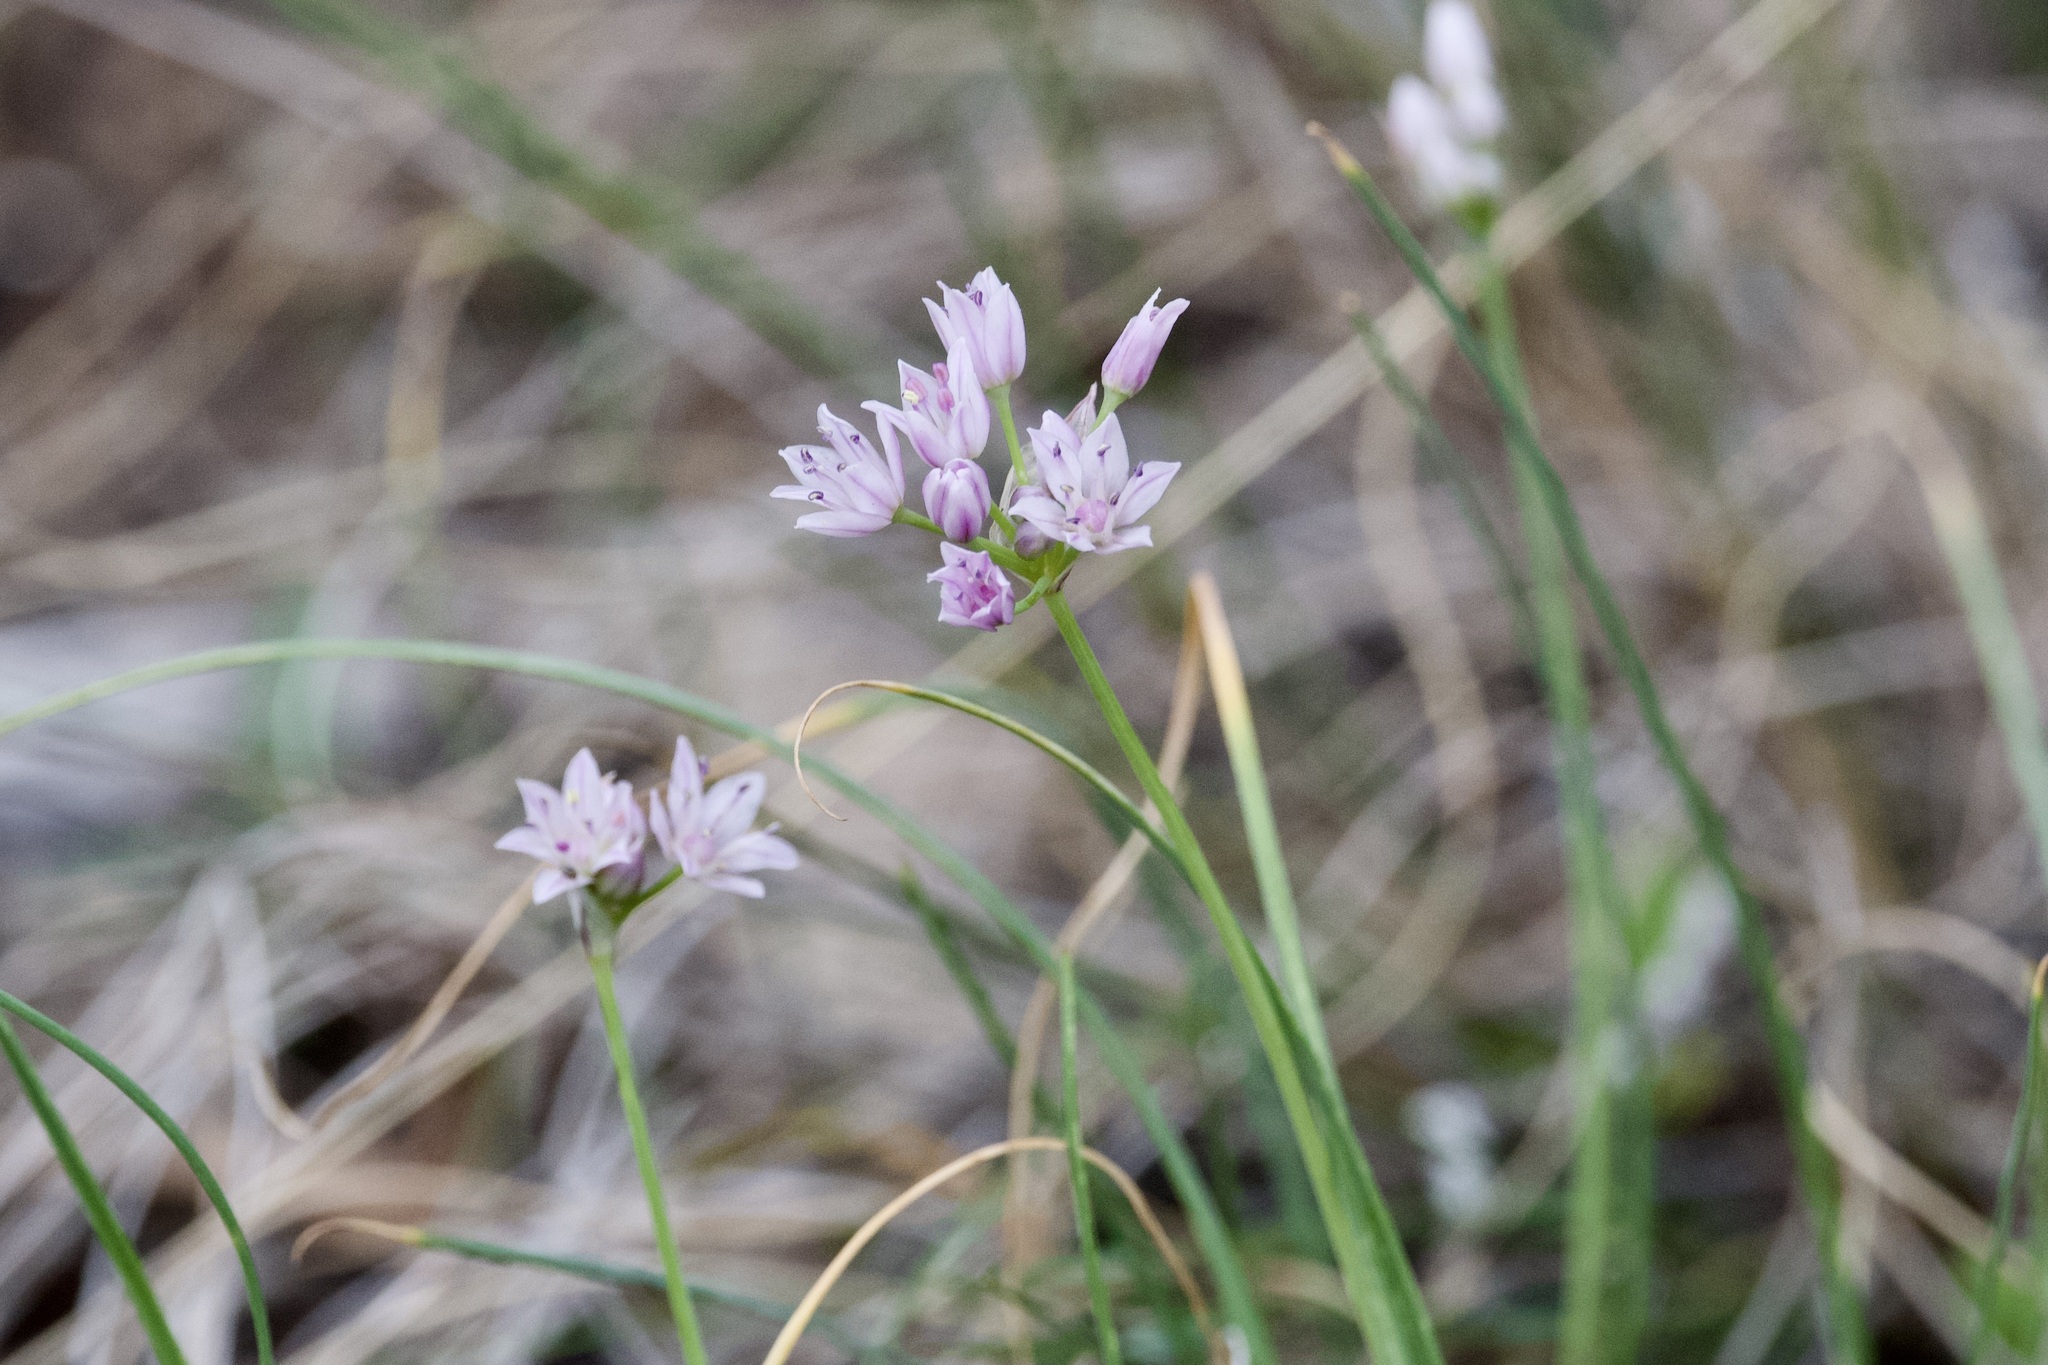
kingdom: Plantae
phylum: Tracheophyta
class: Liliopsida
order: Asparagales
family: Amaryllidaceae
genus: Allium
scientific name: Allium drummondii
